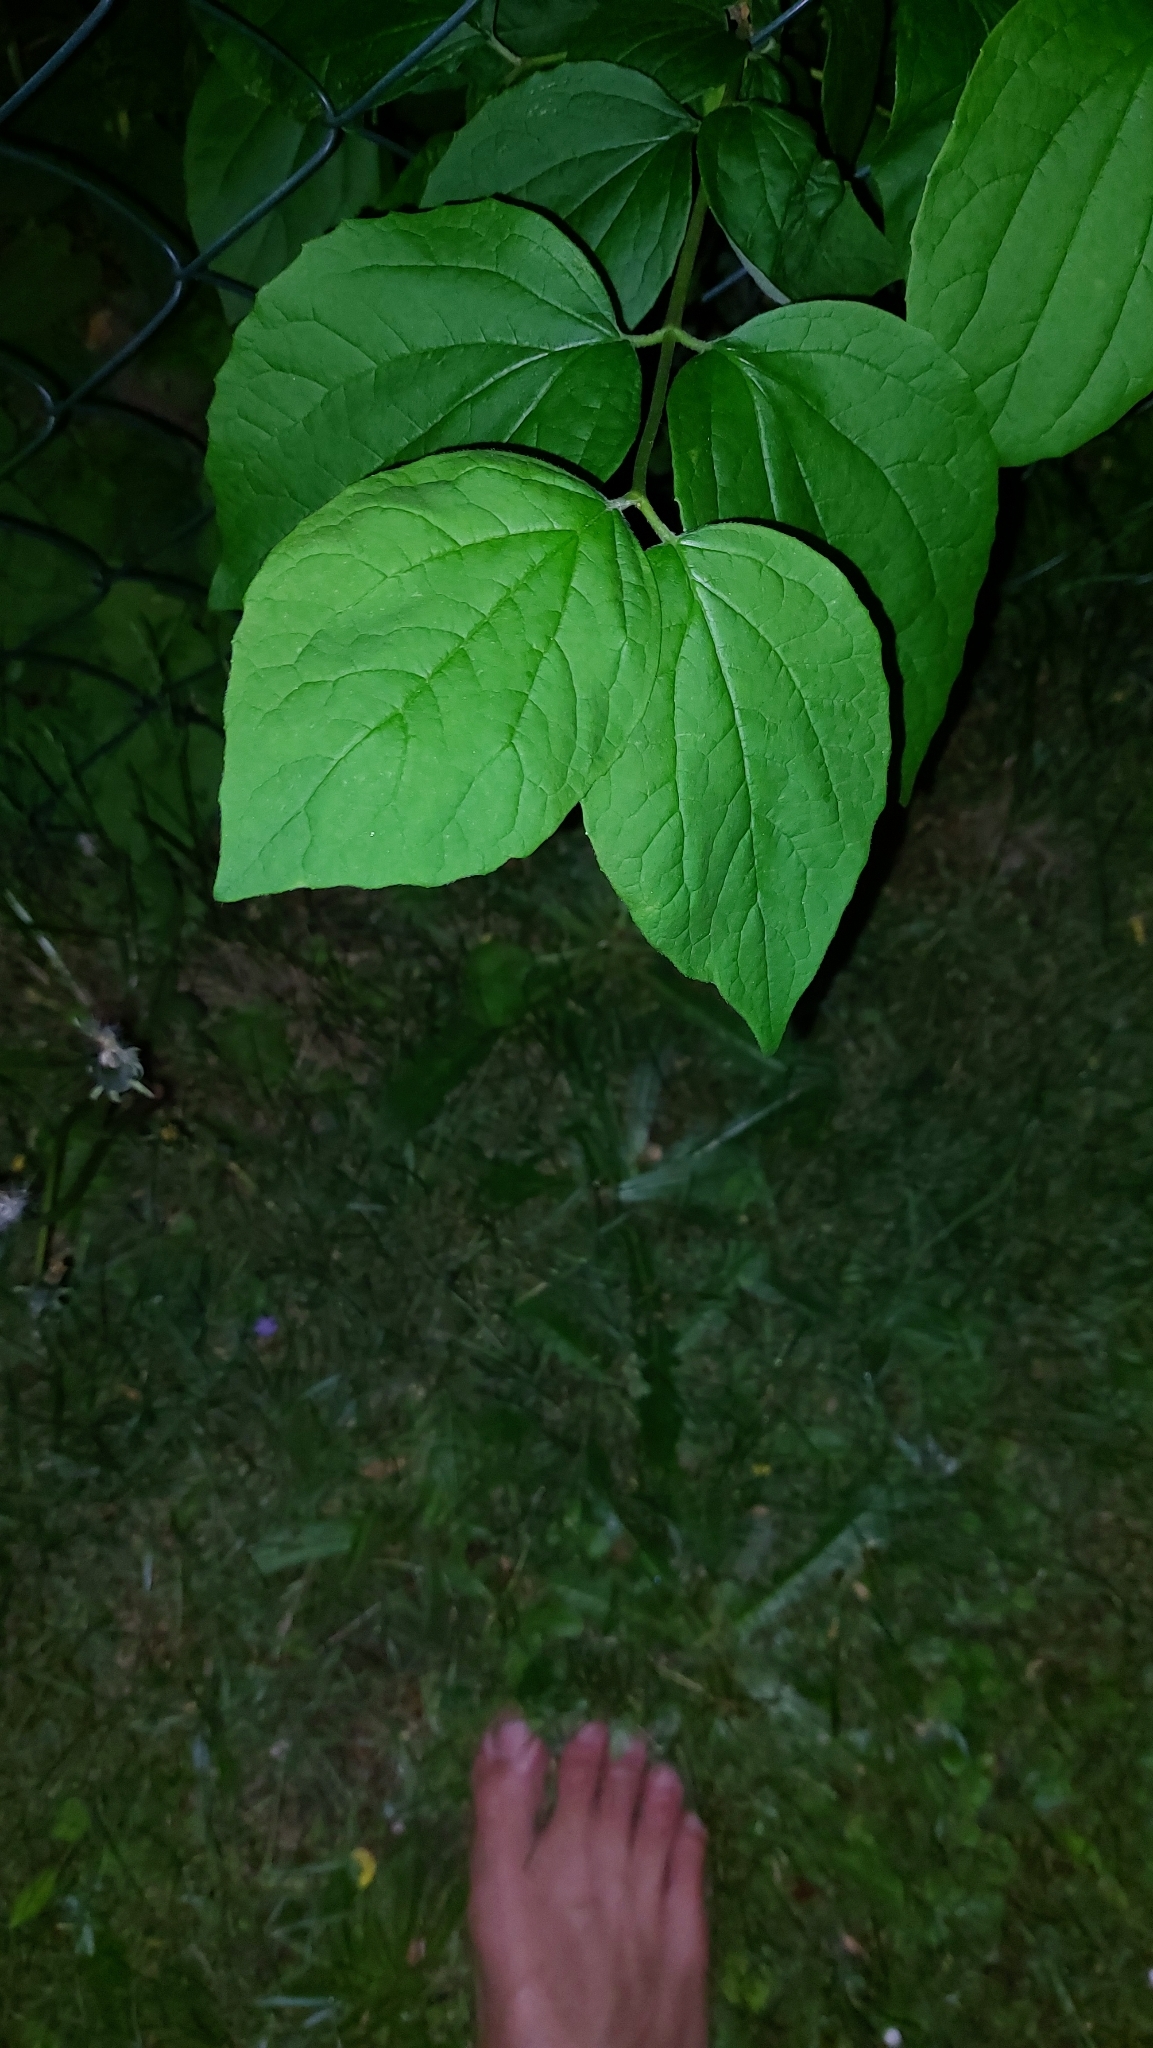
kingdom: Plantae
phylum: Tracheophyta
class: Magnoliopsida
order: Cornales
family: Hydrangeaceae
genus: Philadelphus
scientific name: Philadelphus coronarius
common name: Mock orange
